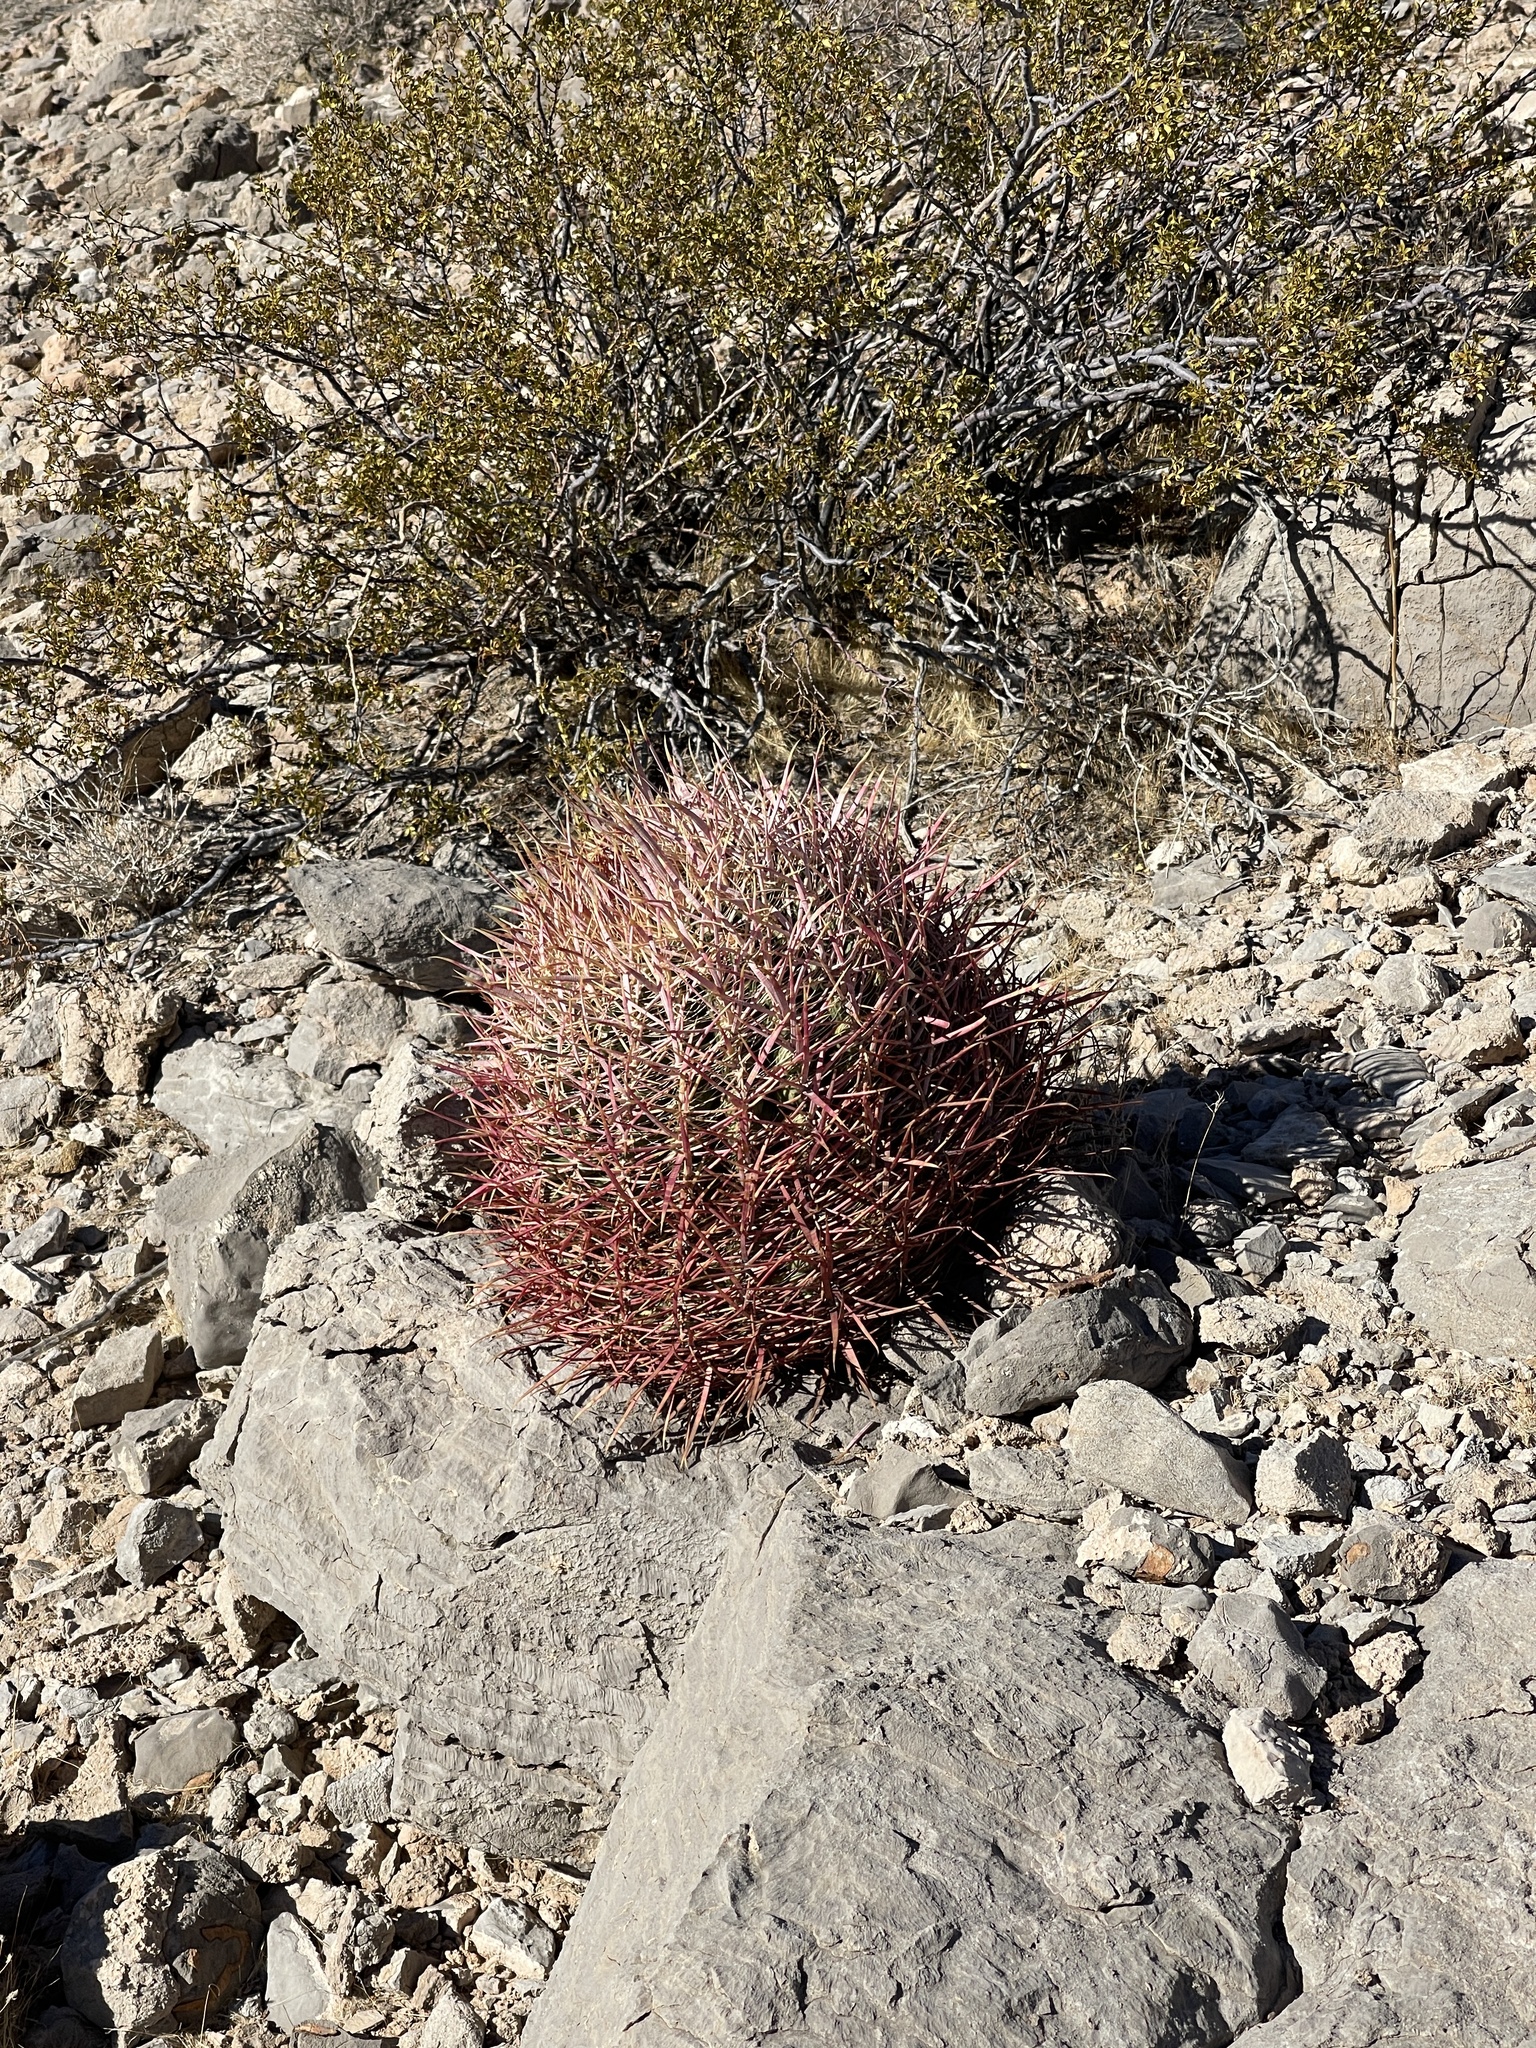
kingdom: Plantae
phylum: Tracheophyta
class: Magnoliopsida
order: Caryophyllales
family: Cactaceae
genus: Ferocactus
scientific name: Ferocactus cylindraceus
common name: California barrel cactus
